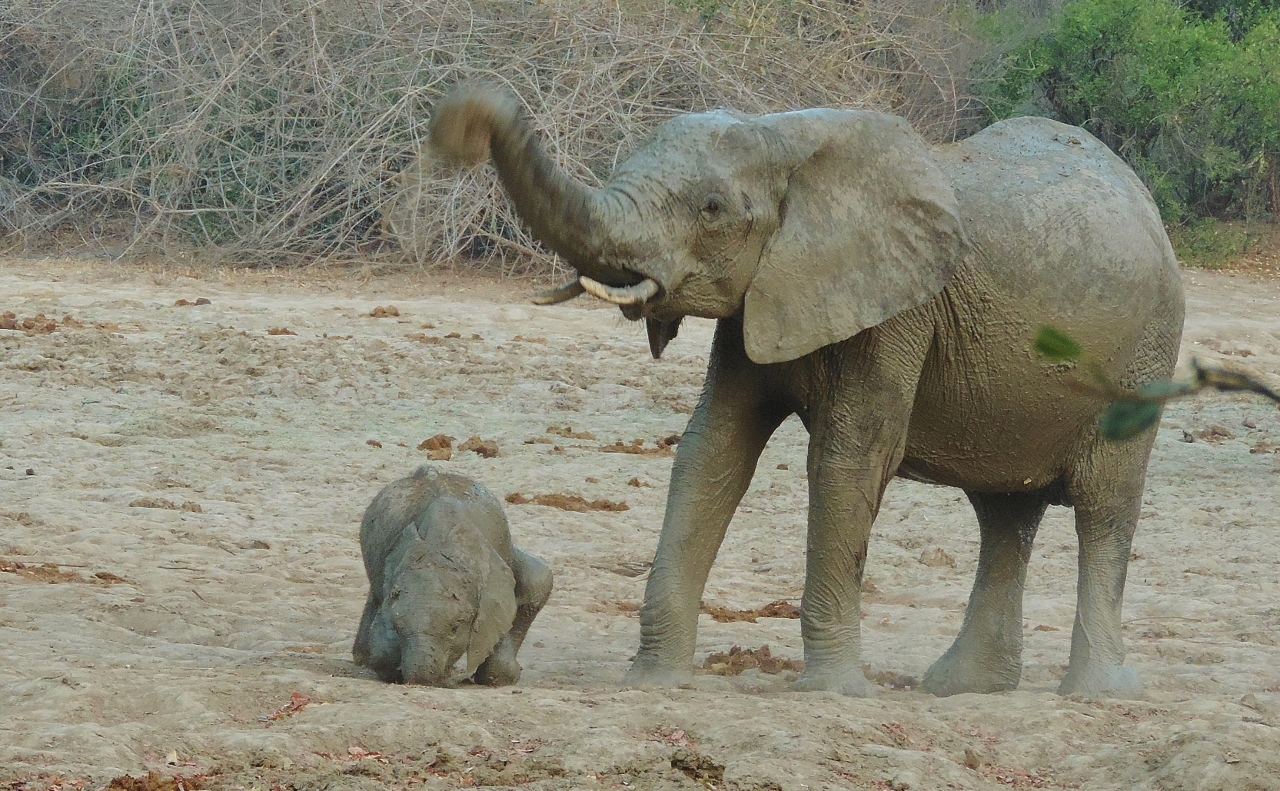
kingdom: Animalia
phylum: Chordata
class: Mammalia
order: Proboscidea
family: Elephantidae
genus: Loxodonta
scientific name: Loxodonta africana
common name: African elephant
